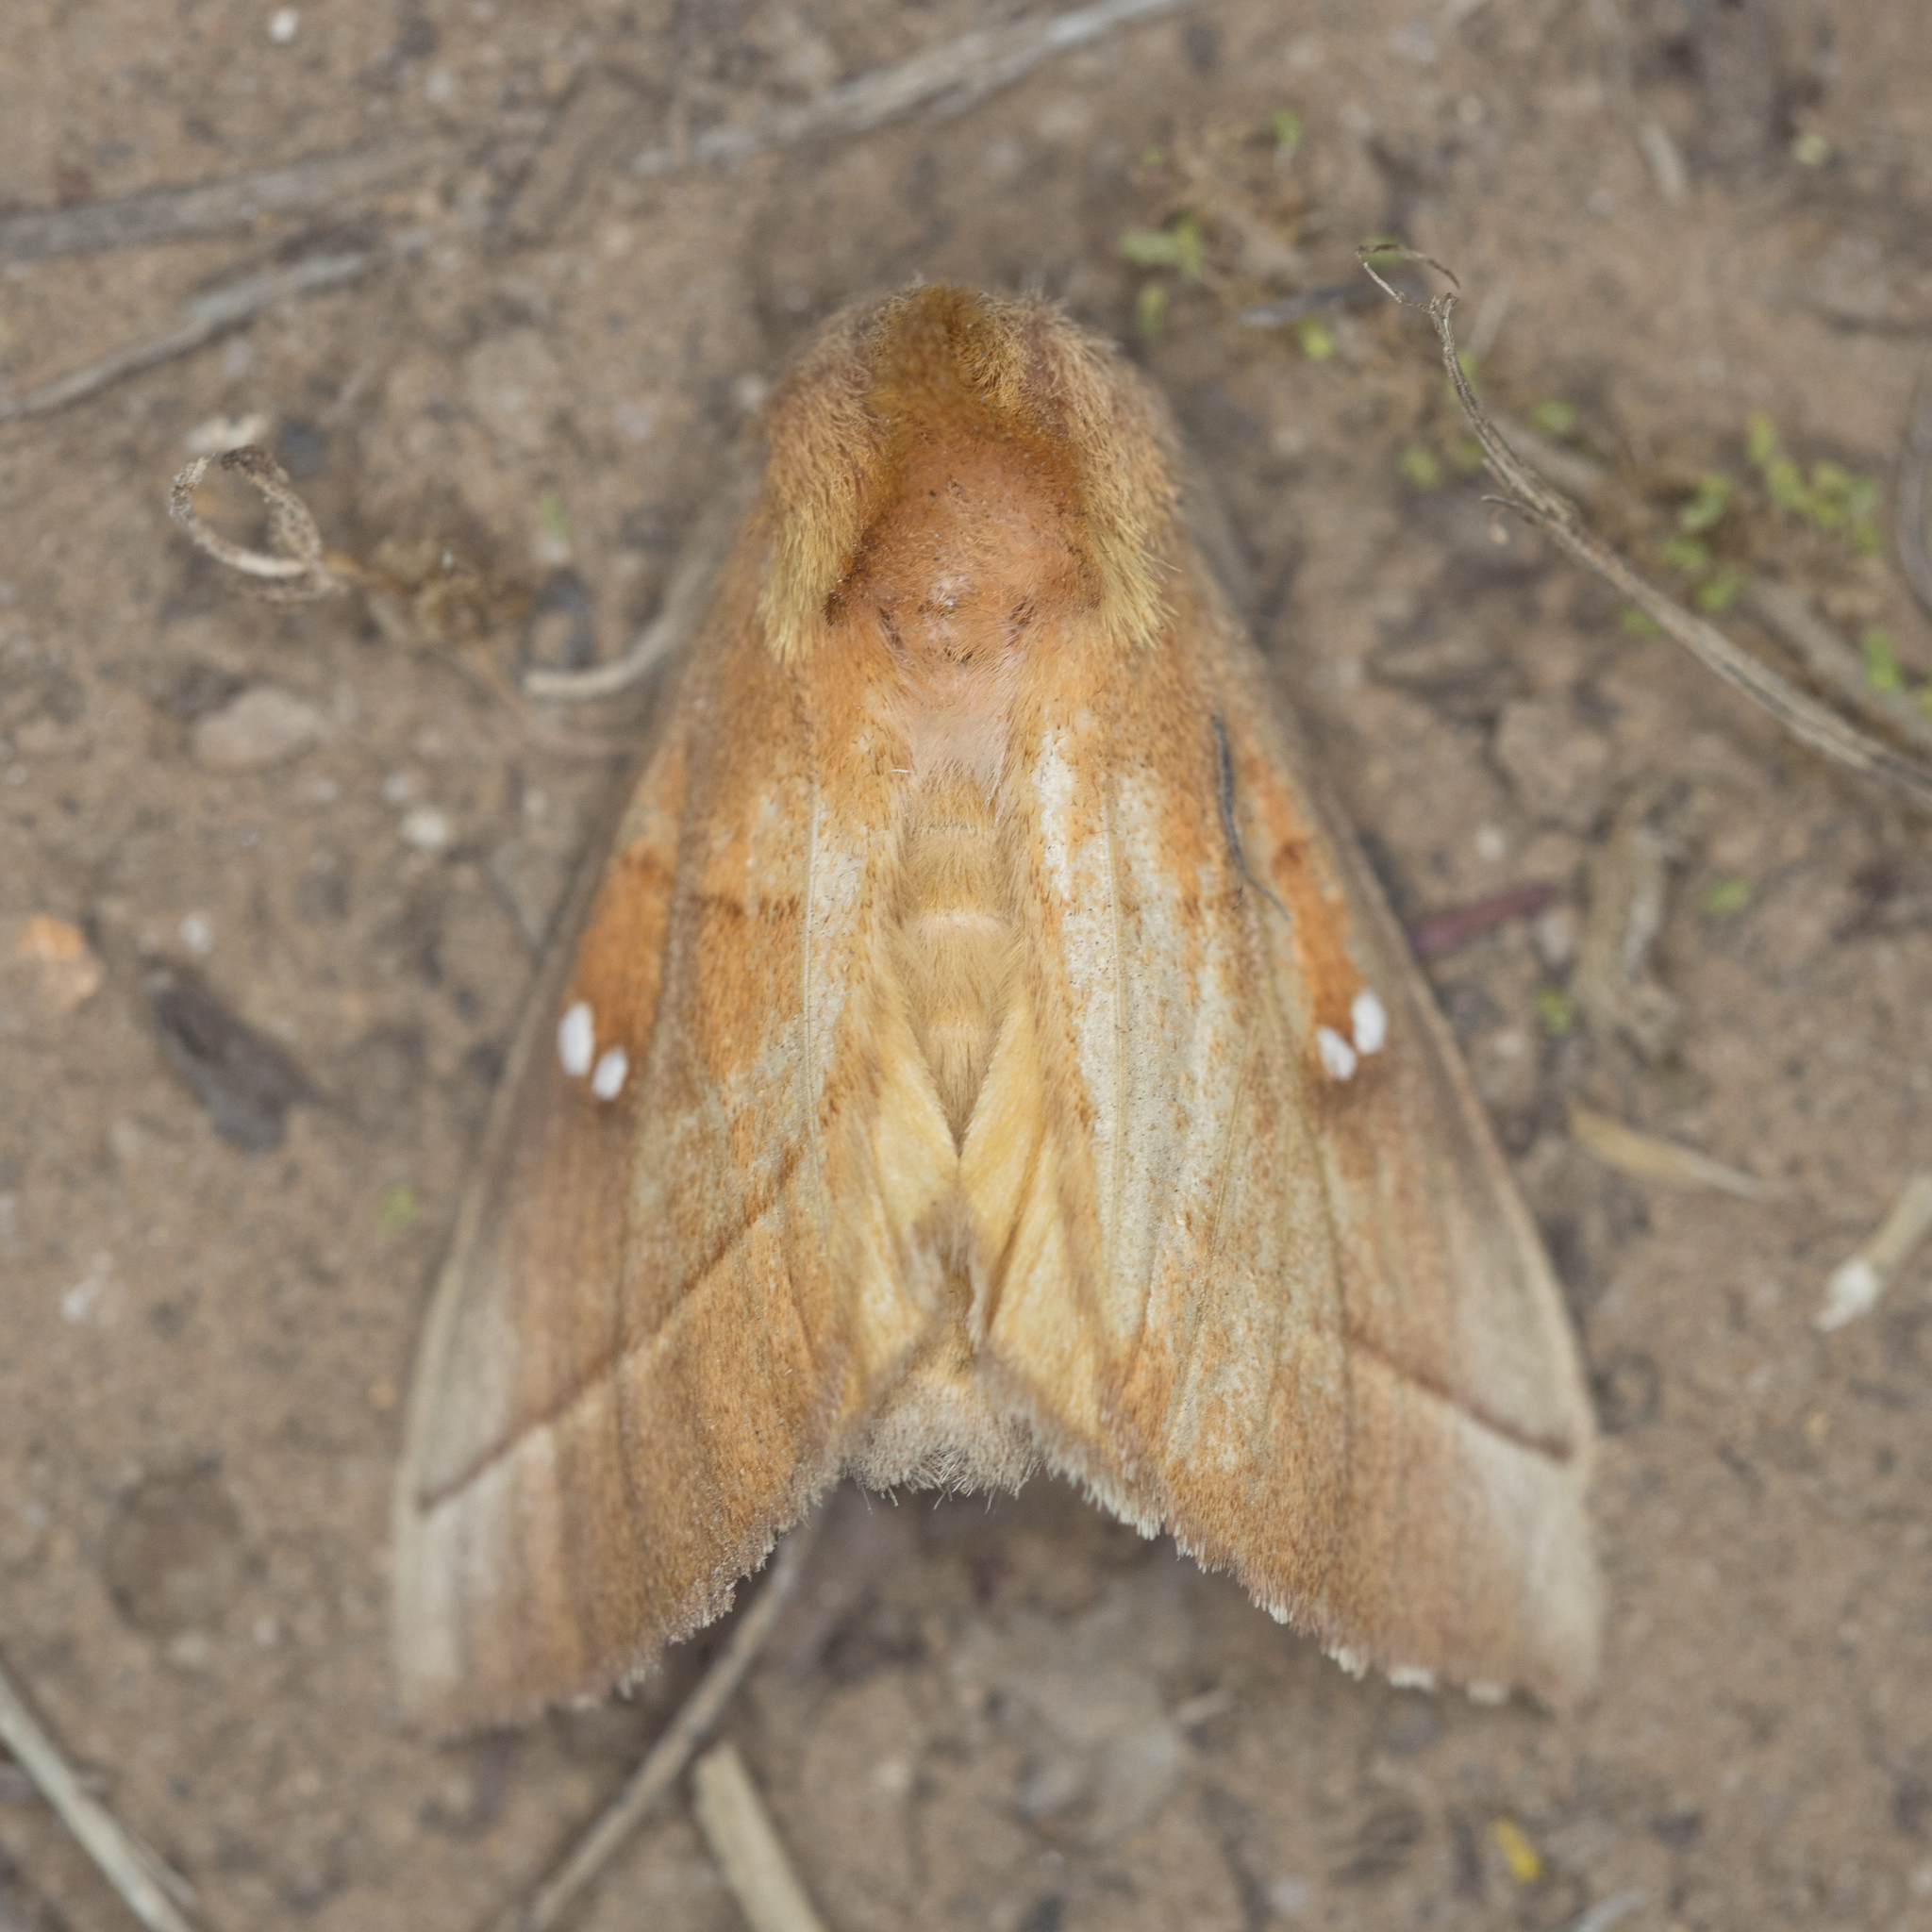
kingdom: Animalia
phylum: Arthropoda
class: Insecta
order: Lepidoptera
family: Notodontidae
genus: Nadata
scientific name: Nadata gibbosa
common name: White-dotted prominent
